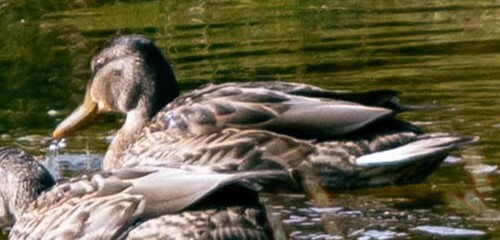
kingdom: Animalia
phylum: Chordata
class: Aves
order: Anseriformes
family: Anatidae
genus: Anas
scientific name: Anas platyrhynchos
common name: Mallard
